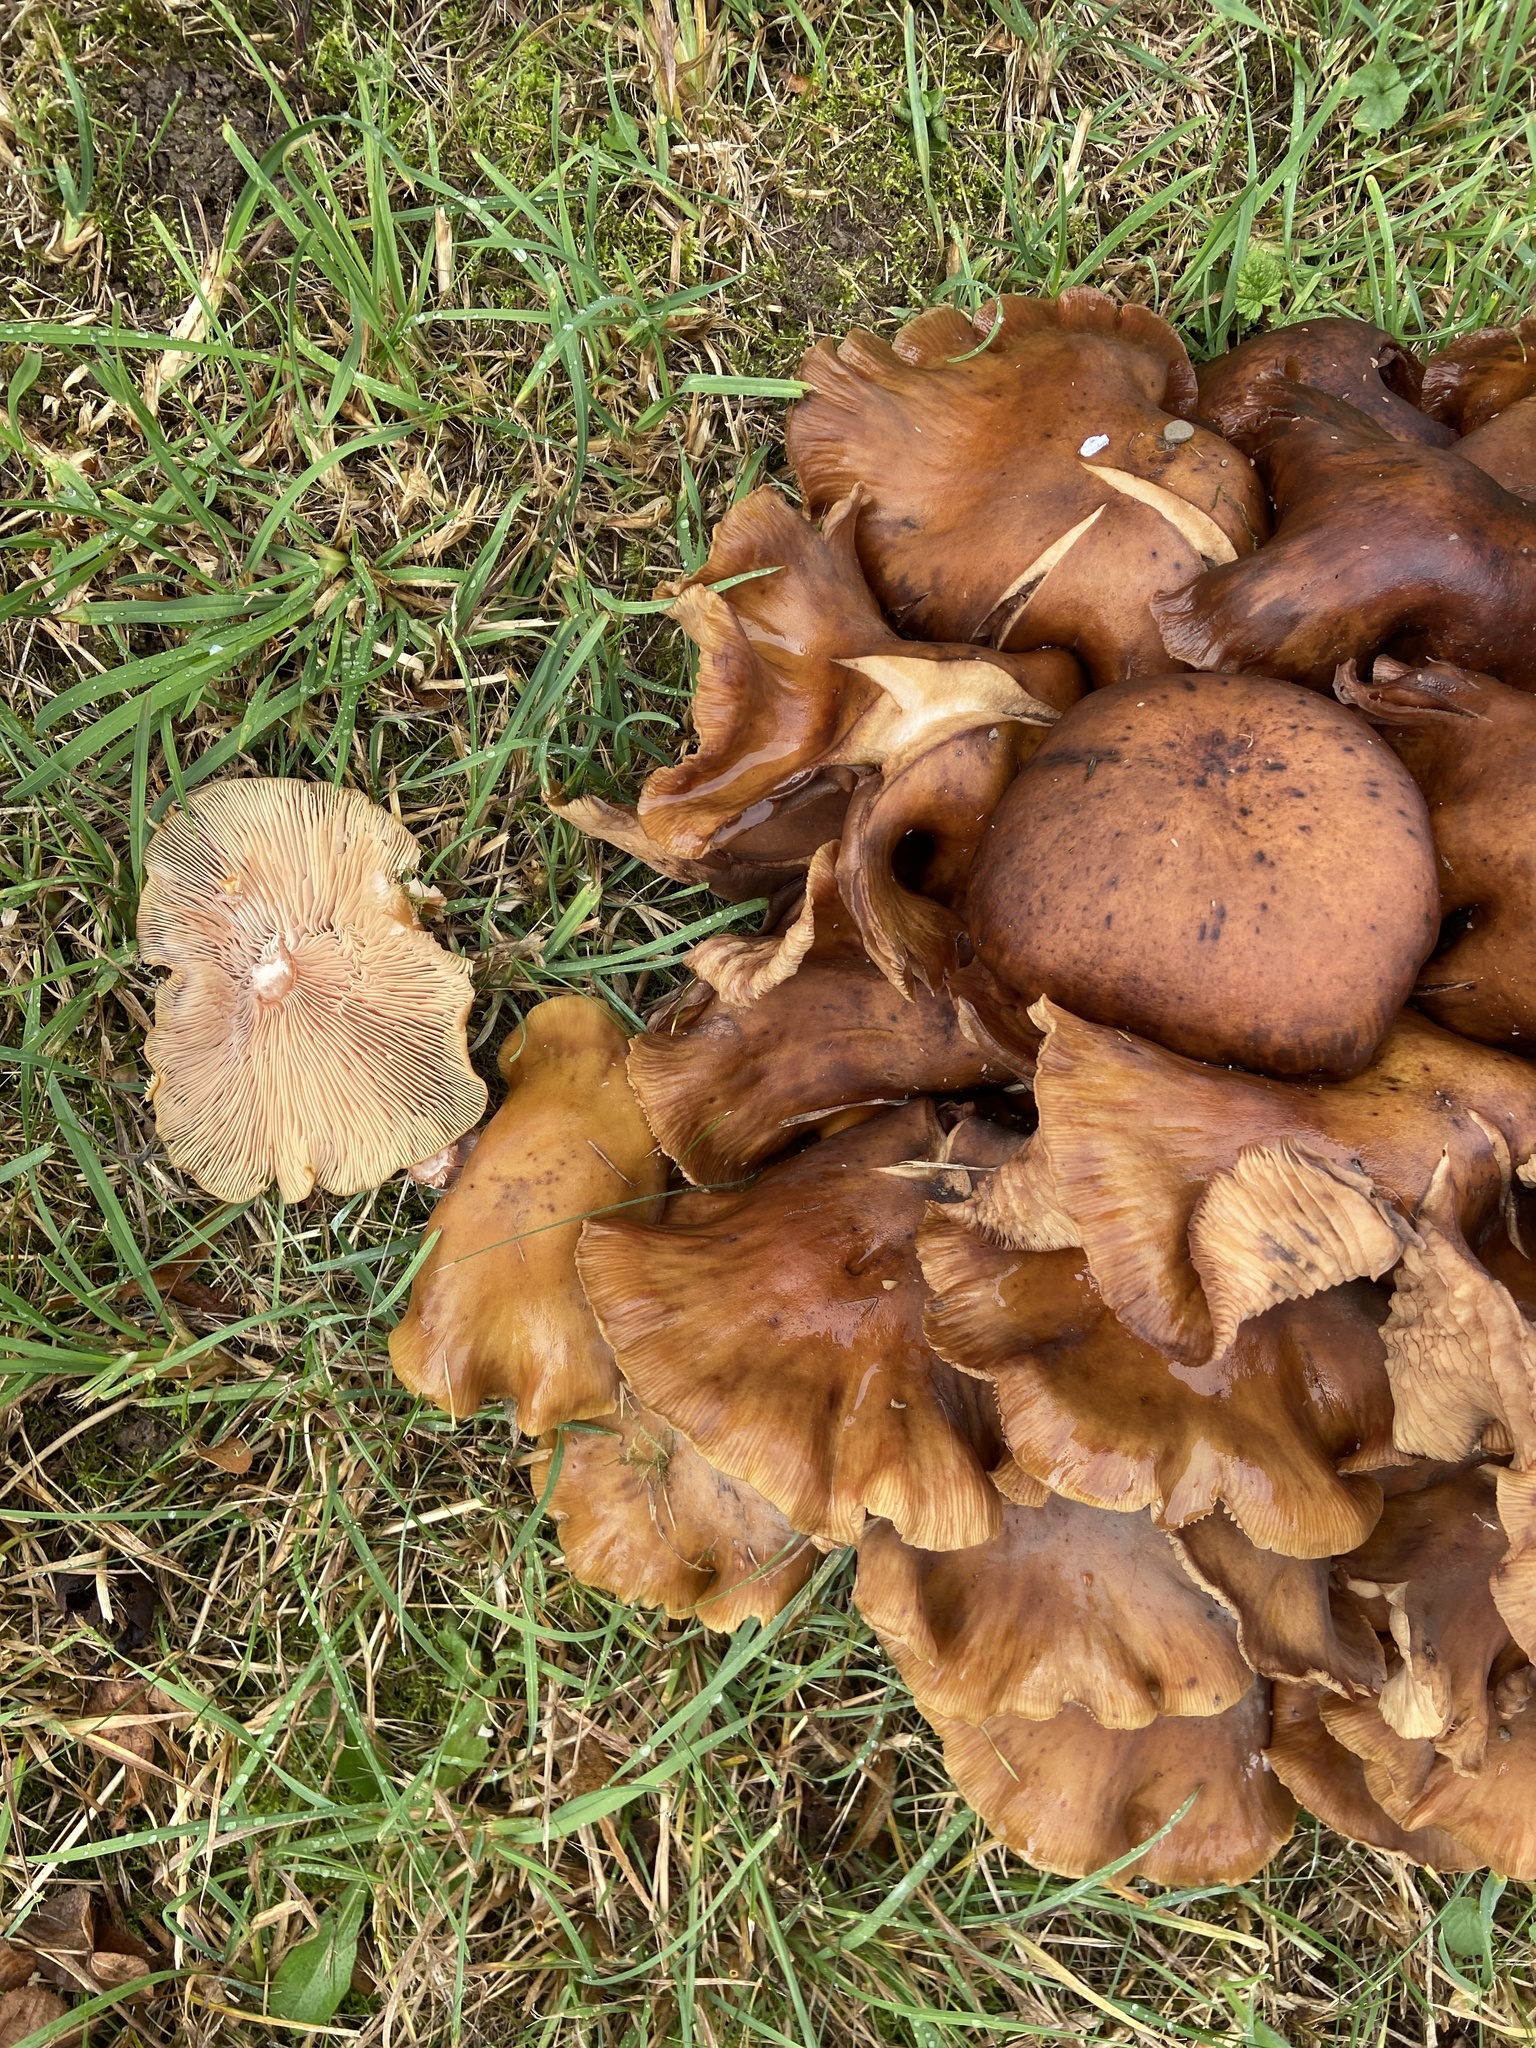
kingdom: Fungi
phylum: Basidiomycota
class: Agaricomycetes
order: Agaricales
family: Physalacriaceae
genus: Armillaria
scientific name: Armillaria mellea
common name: Honey fungus
